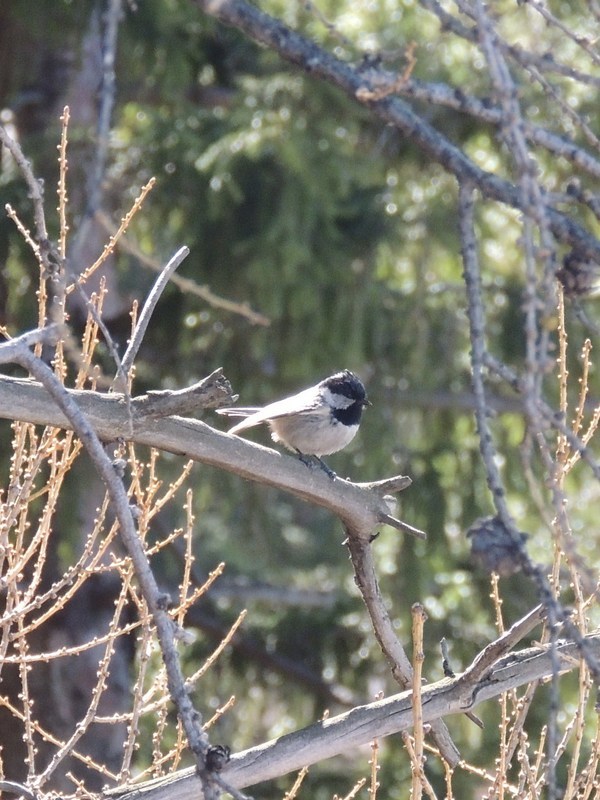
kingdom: Animalia
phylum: Chordata
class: Aves
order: Passeriformes
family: Paridae
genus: Periparus
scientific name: Periparus ater
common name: Coal tit
